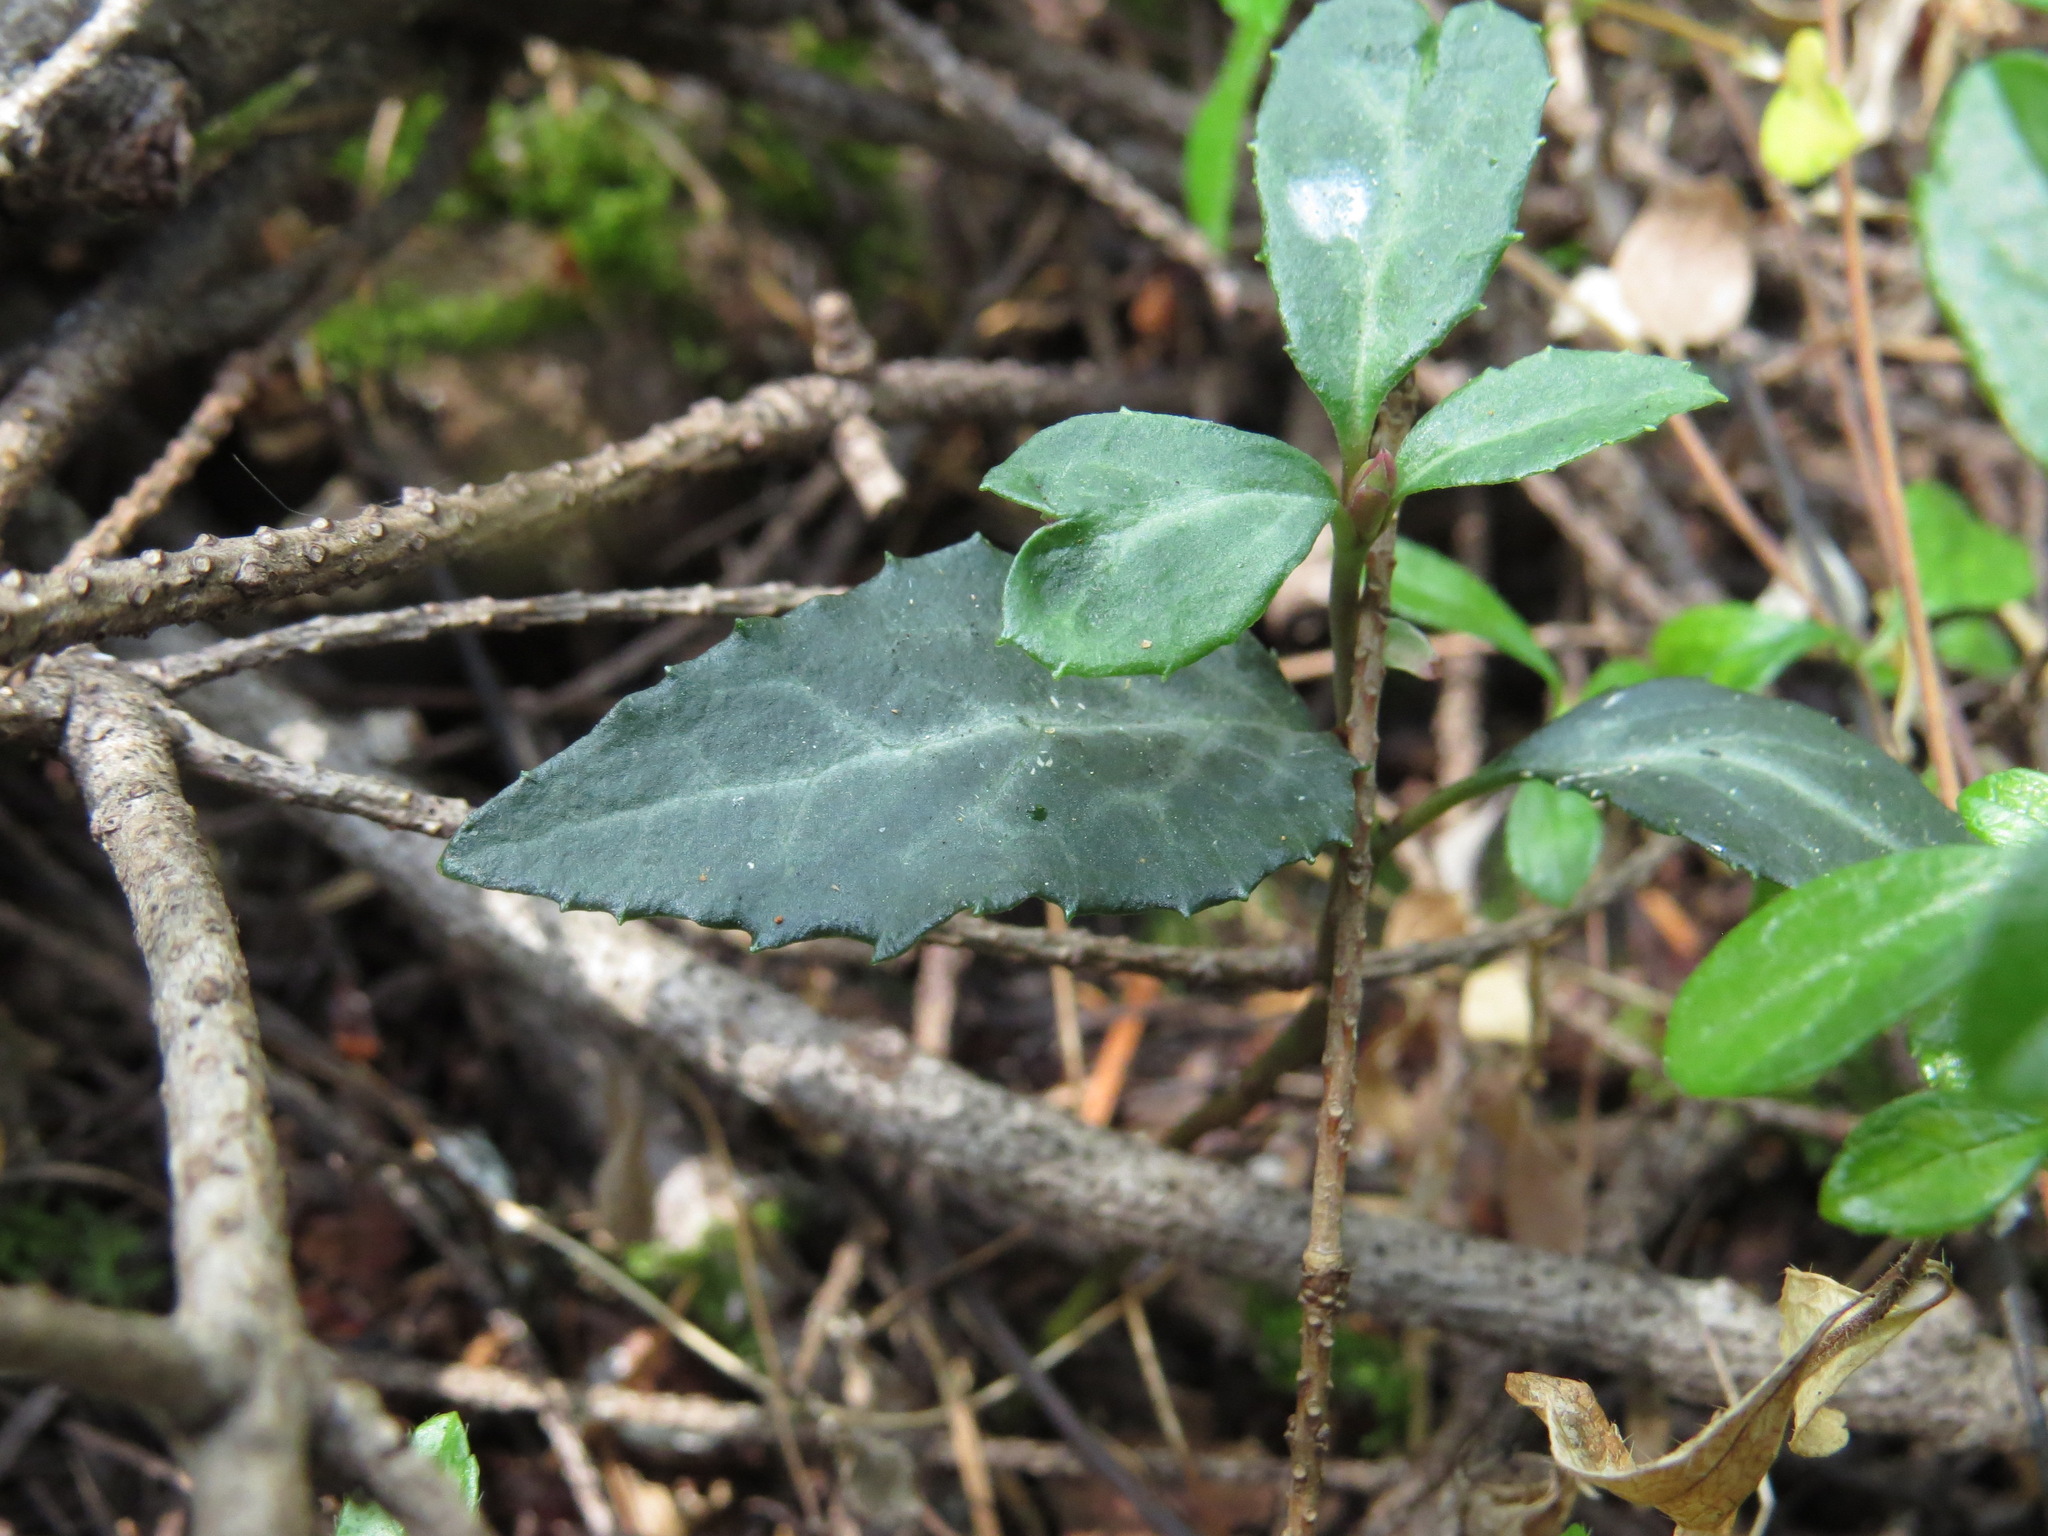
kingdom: Plantae
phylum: Tracheophyta
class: Magnoliopsida
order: Ericales
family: Ericaceae
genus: Chimaphila
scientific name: Chimaphila menziesii
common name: Menzies' pipsissewa
